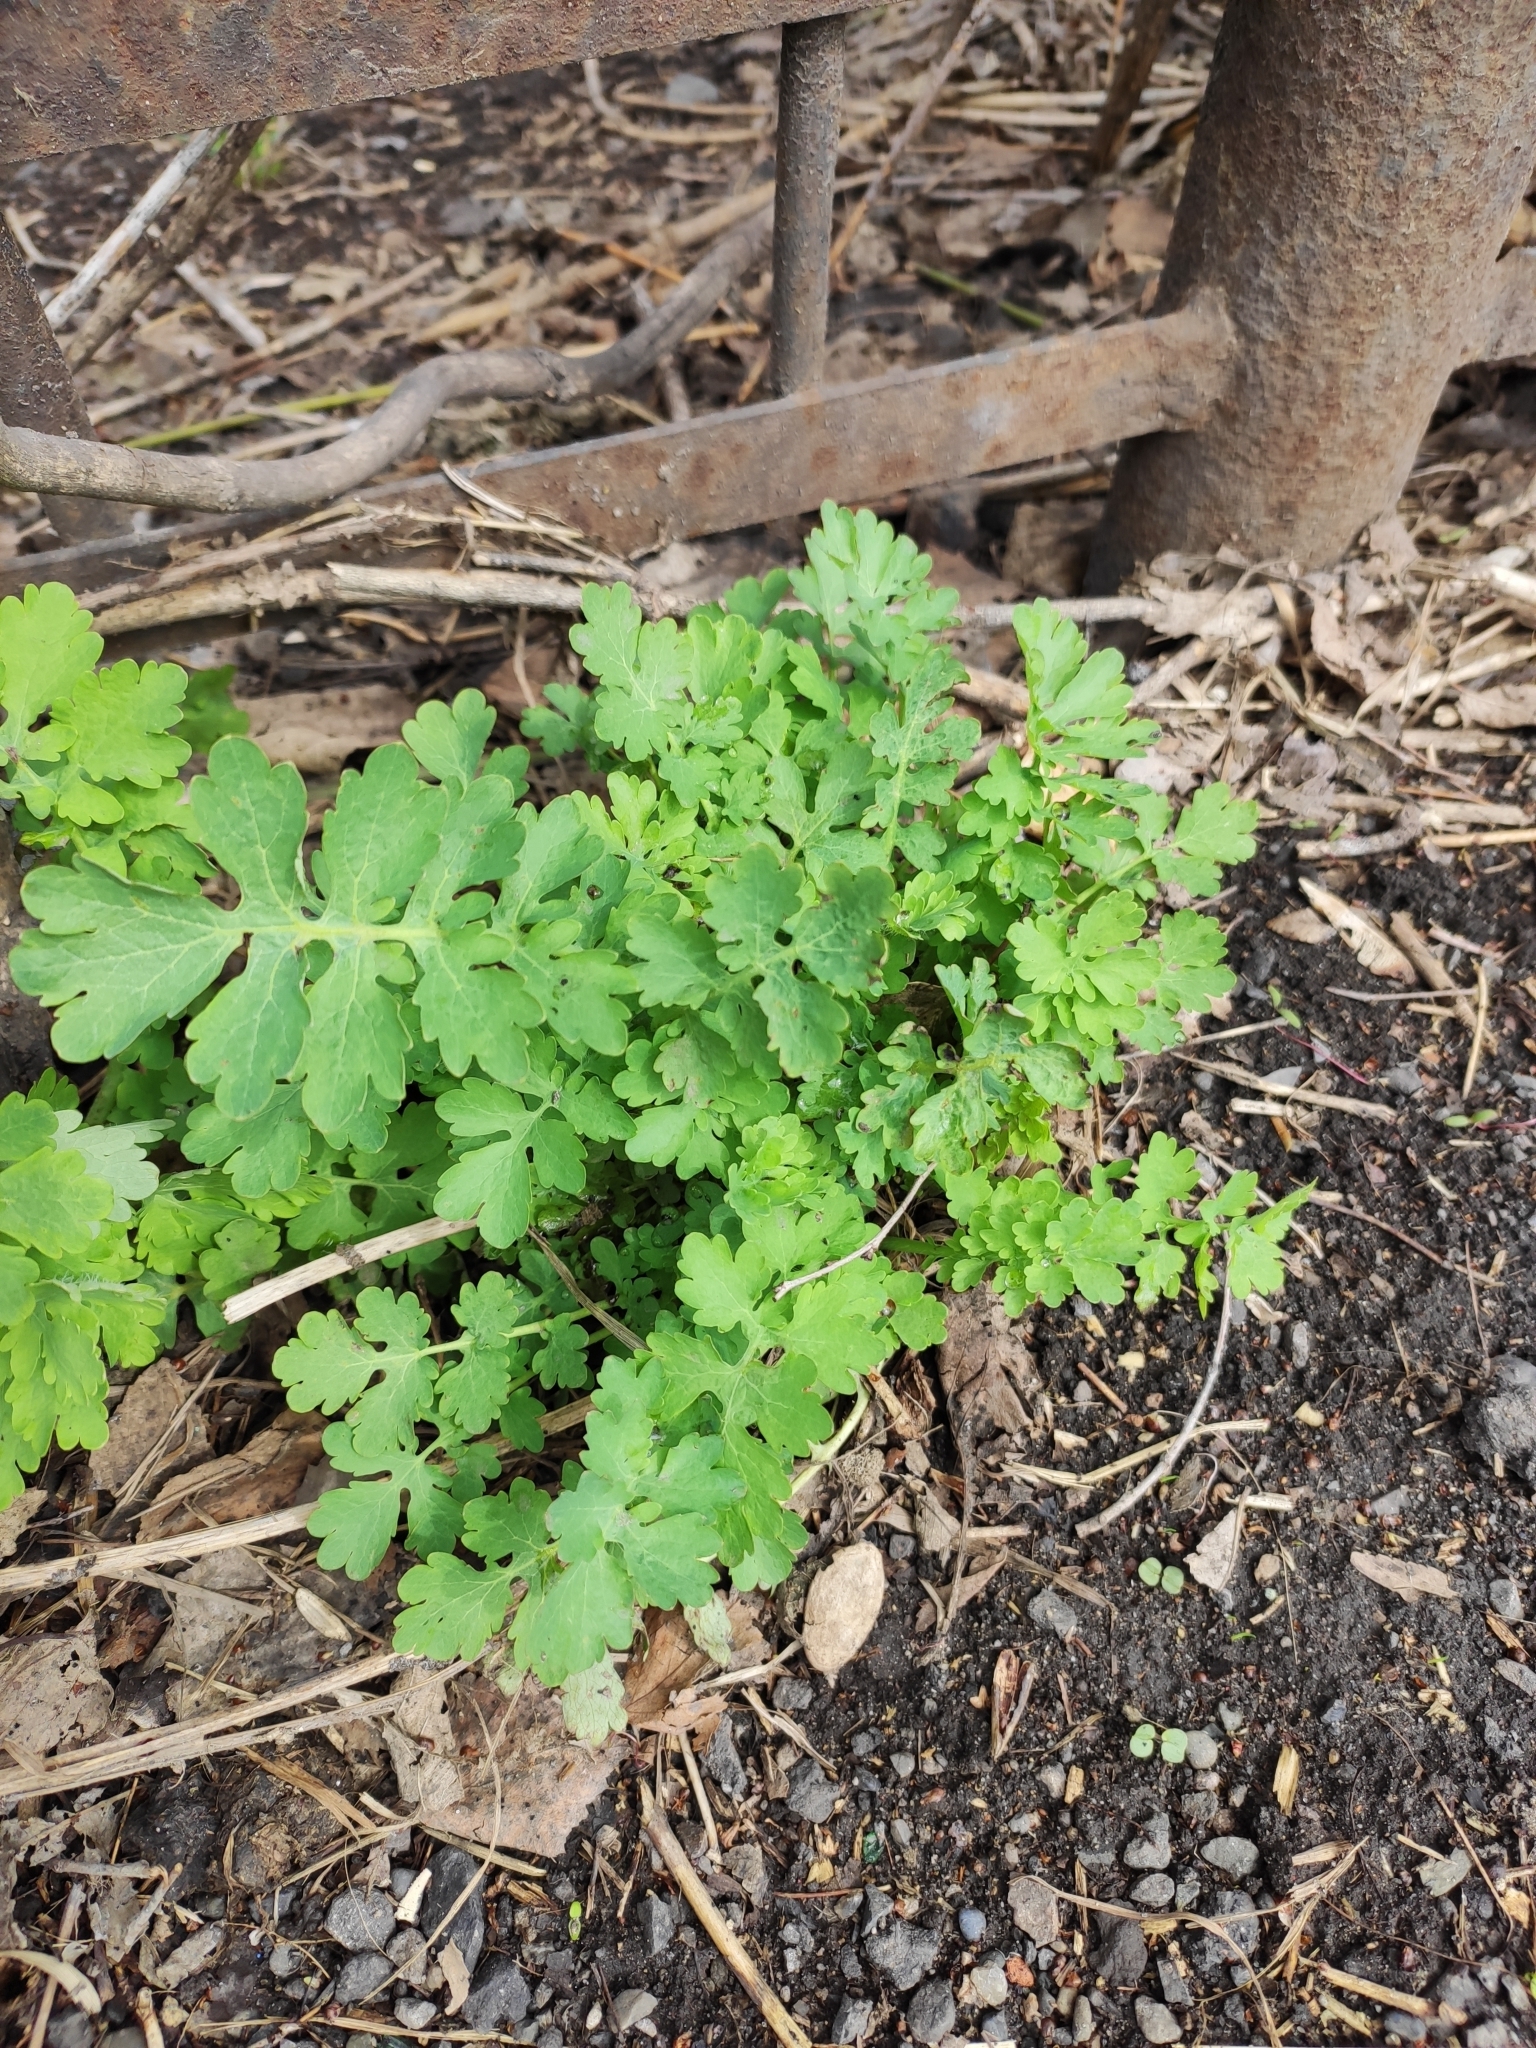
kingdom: Plantae
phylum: Tracheophyta
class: Magnoliopsida
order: Ranunculales
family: Papaveraceae
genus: Chelidonium
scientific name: Chelidonium majus
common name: Greater celandine
